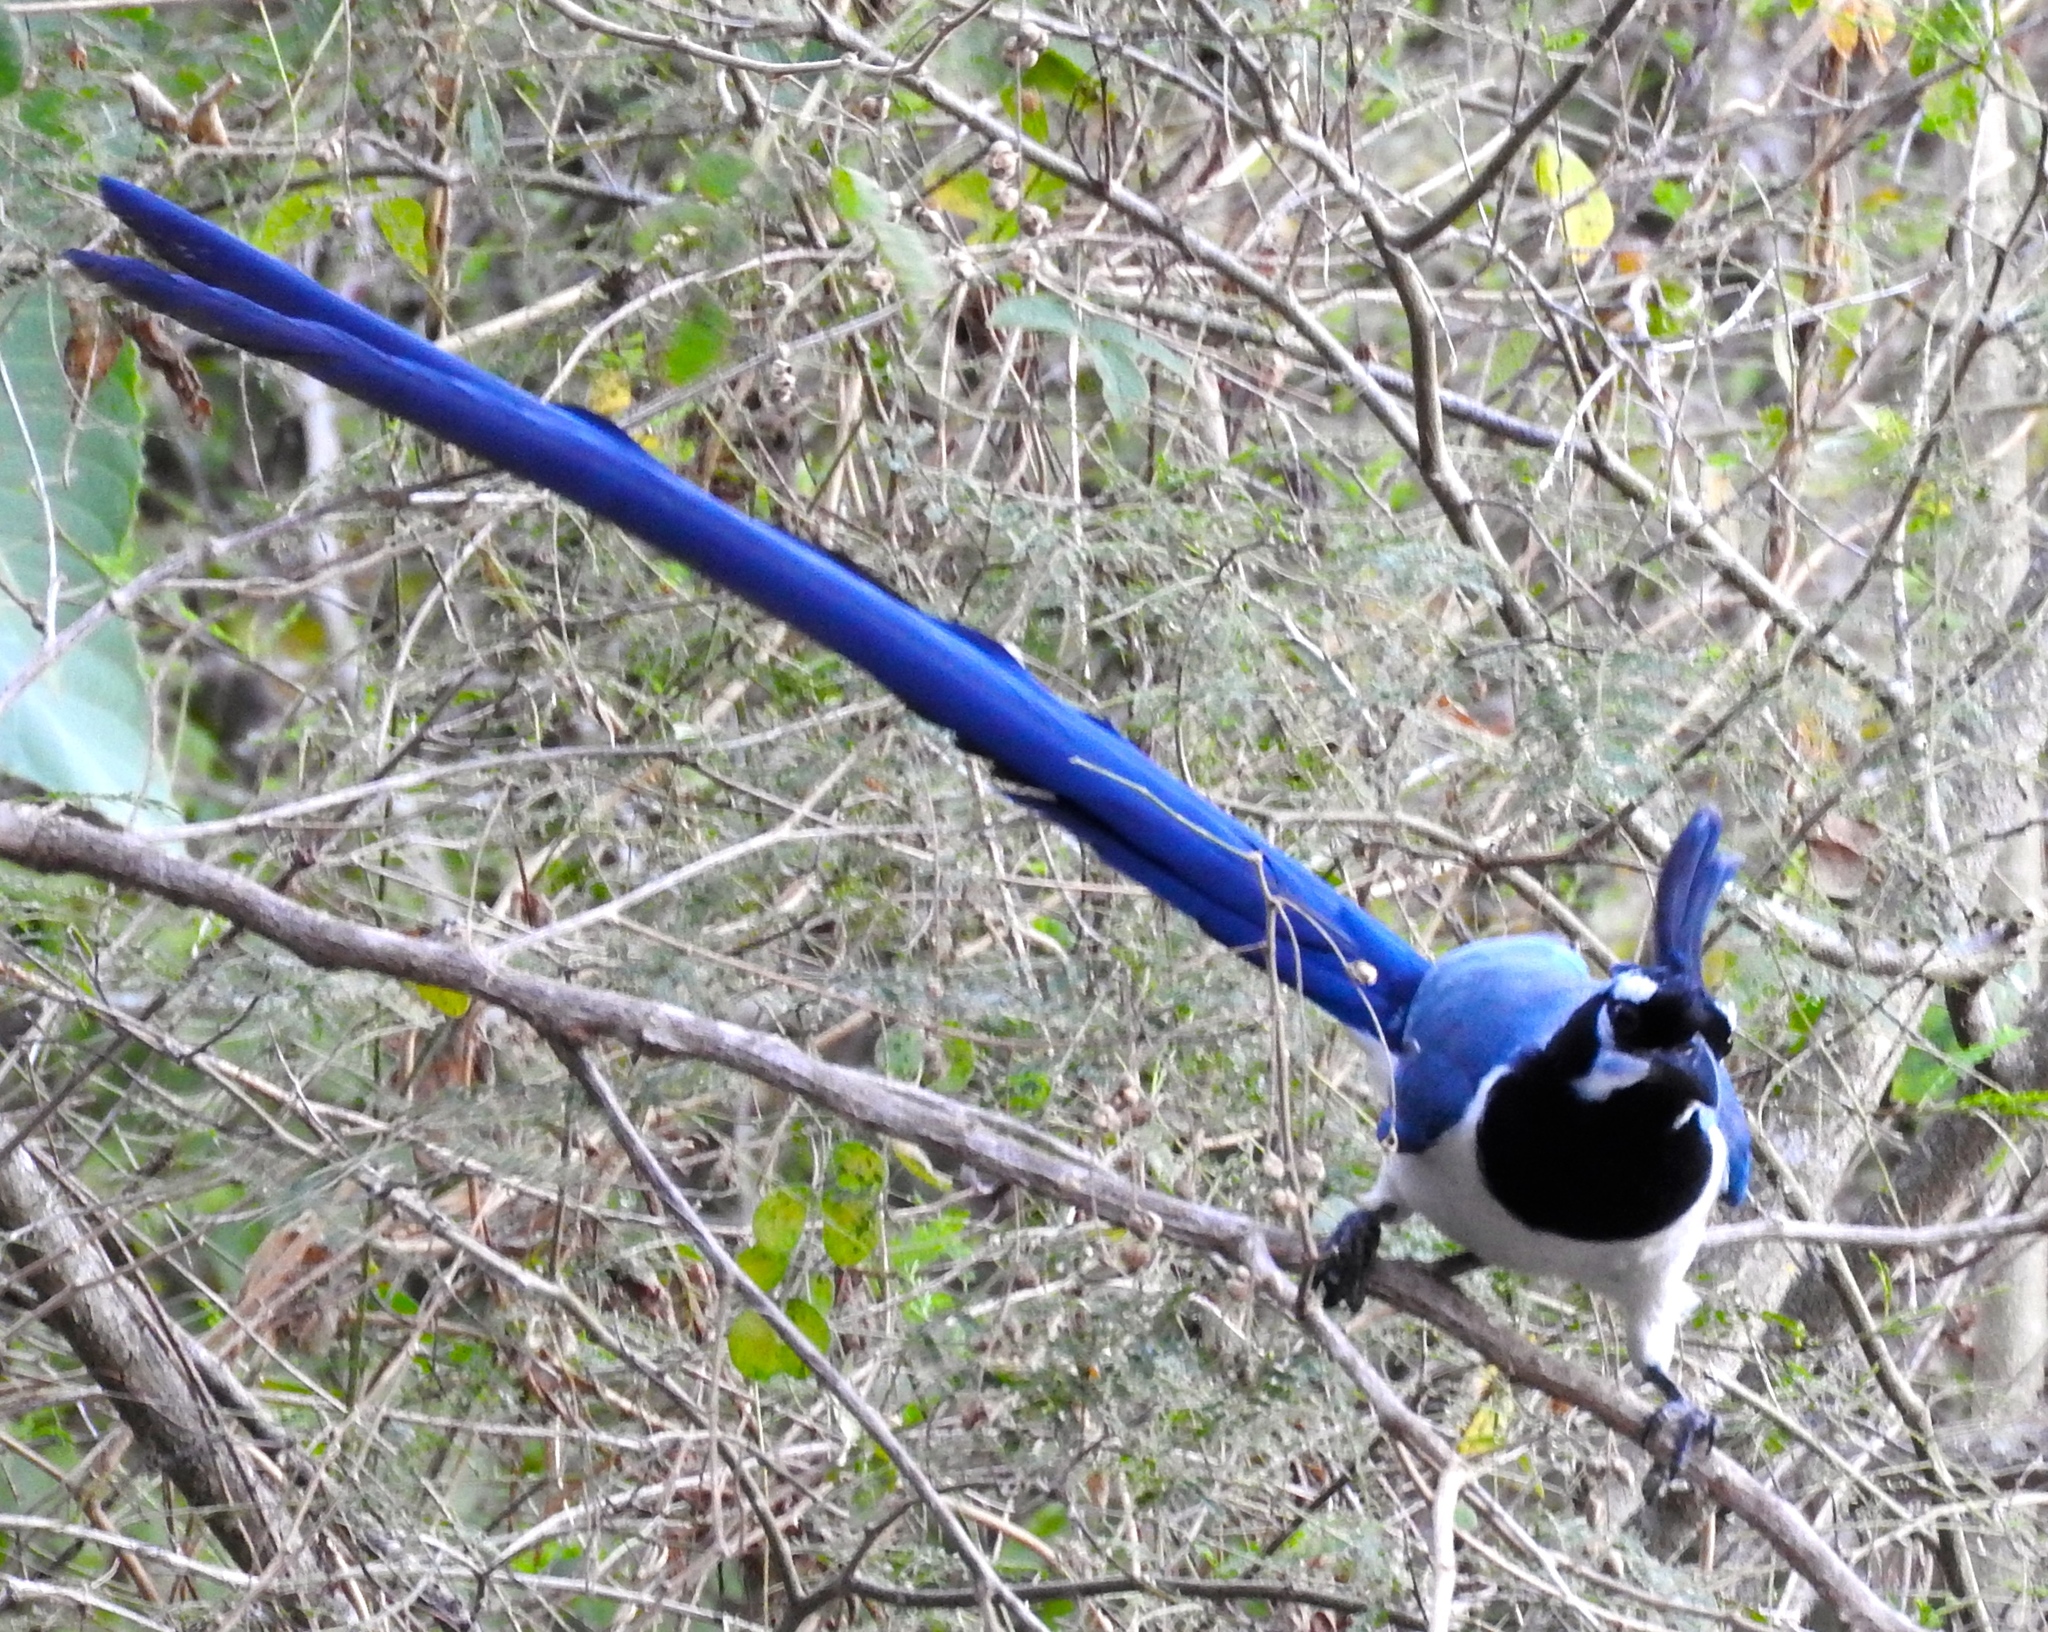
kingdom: Animalia
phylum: Chordata
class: Aves
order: Passeriformes
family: Corvidae
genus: Calocitta
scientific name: Calocitta colliei
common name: Black-throated magpie-jay
